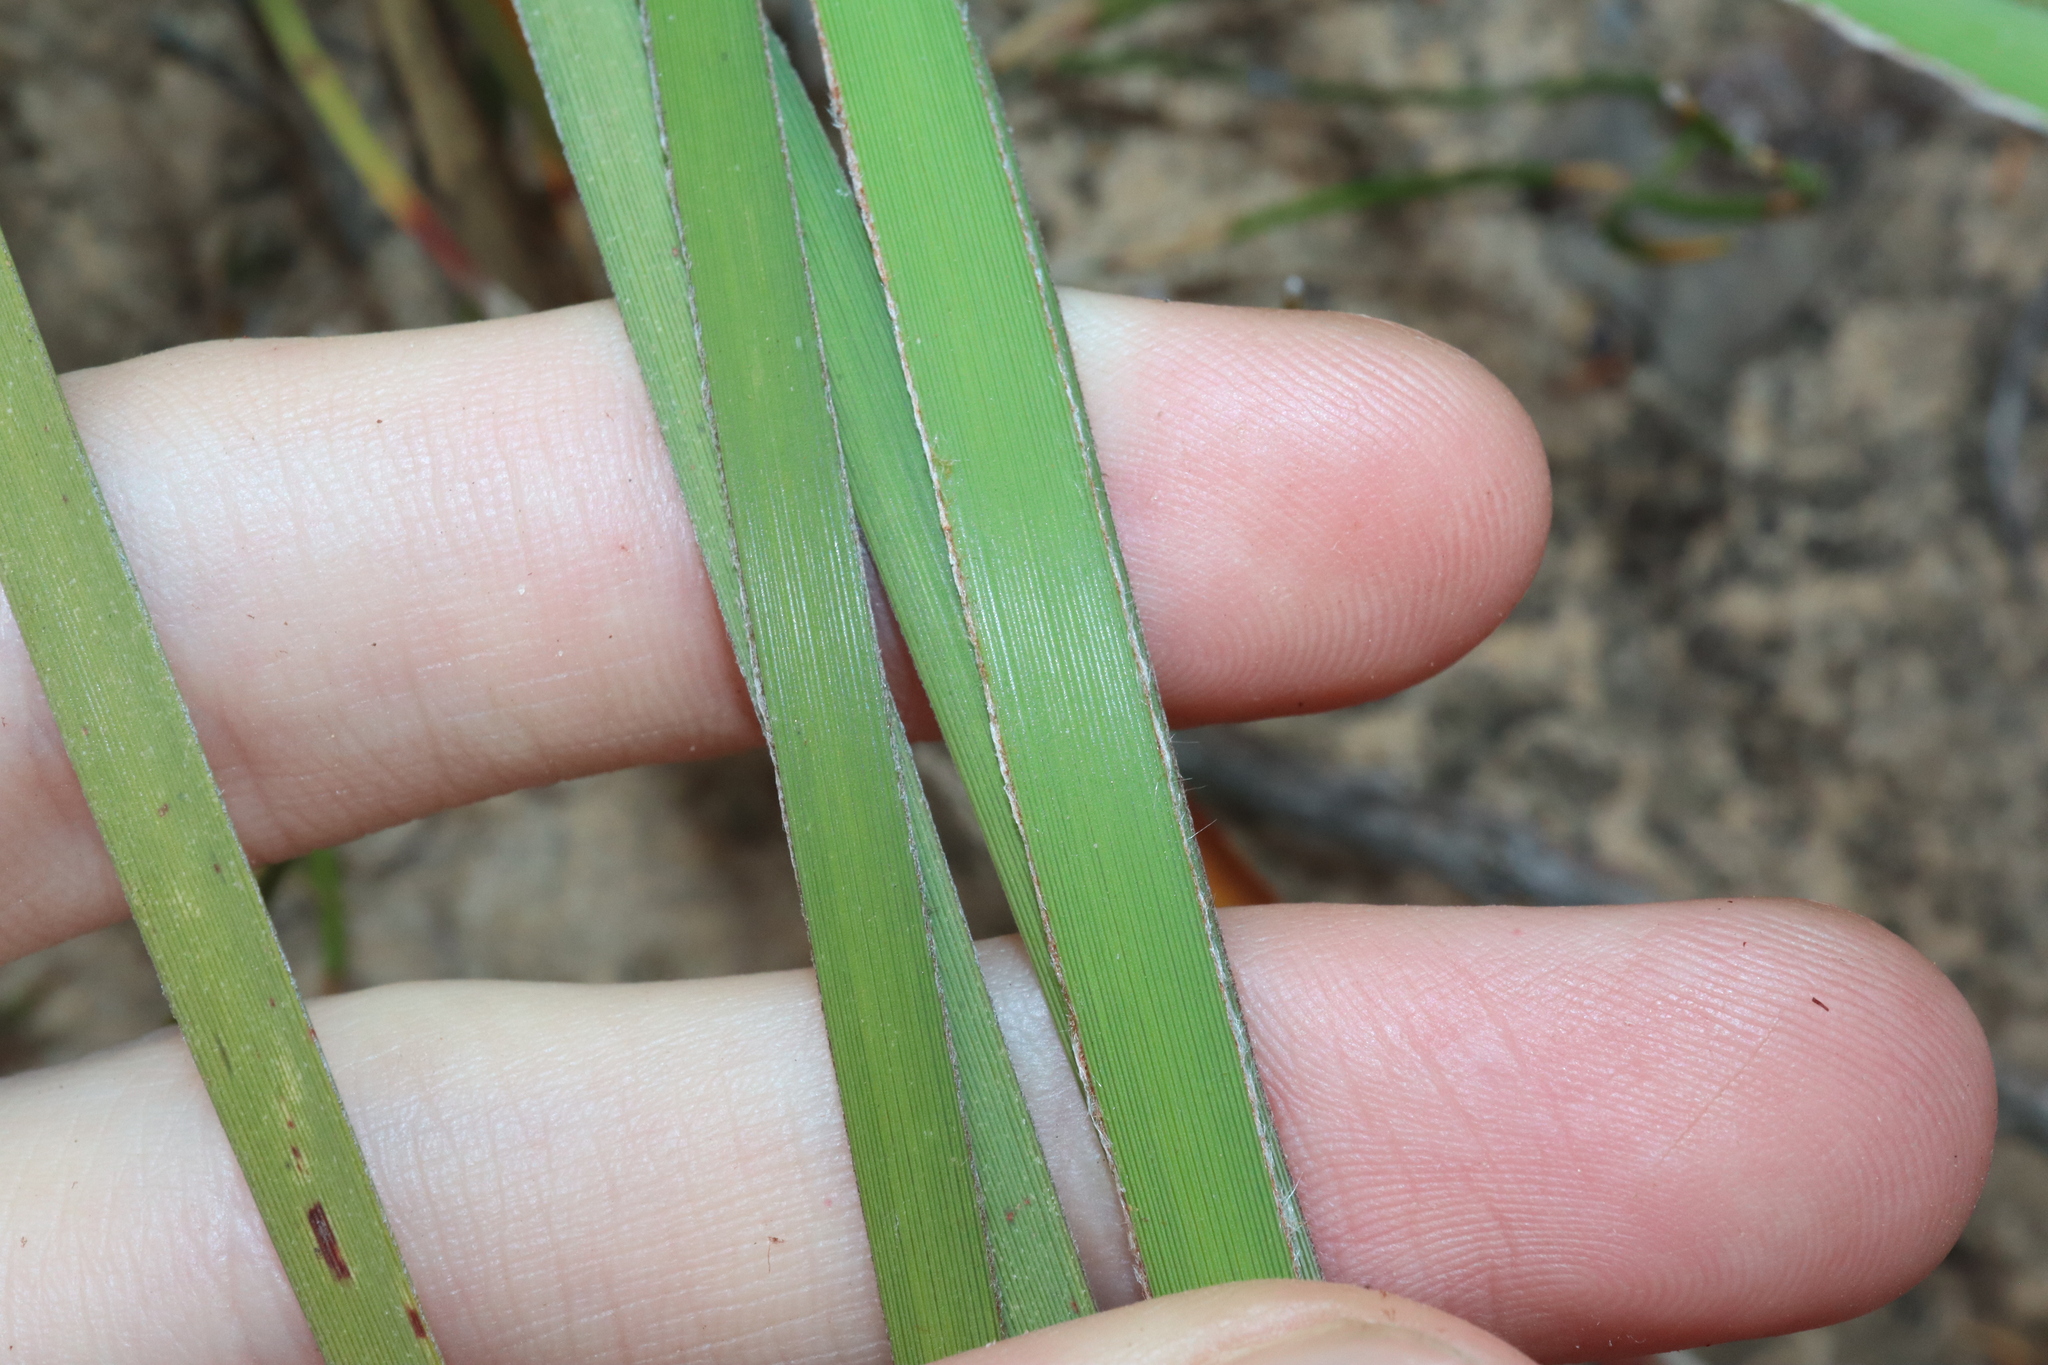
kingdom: Plantae
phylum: Tracheophyta
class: Liliopsida
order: Asparagales
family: Iridaceae
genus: Patersonia
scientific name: Patersonia lanata
